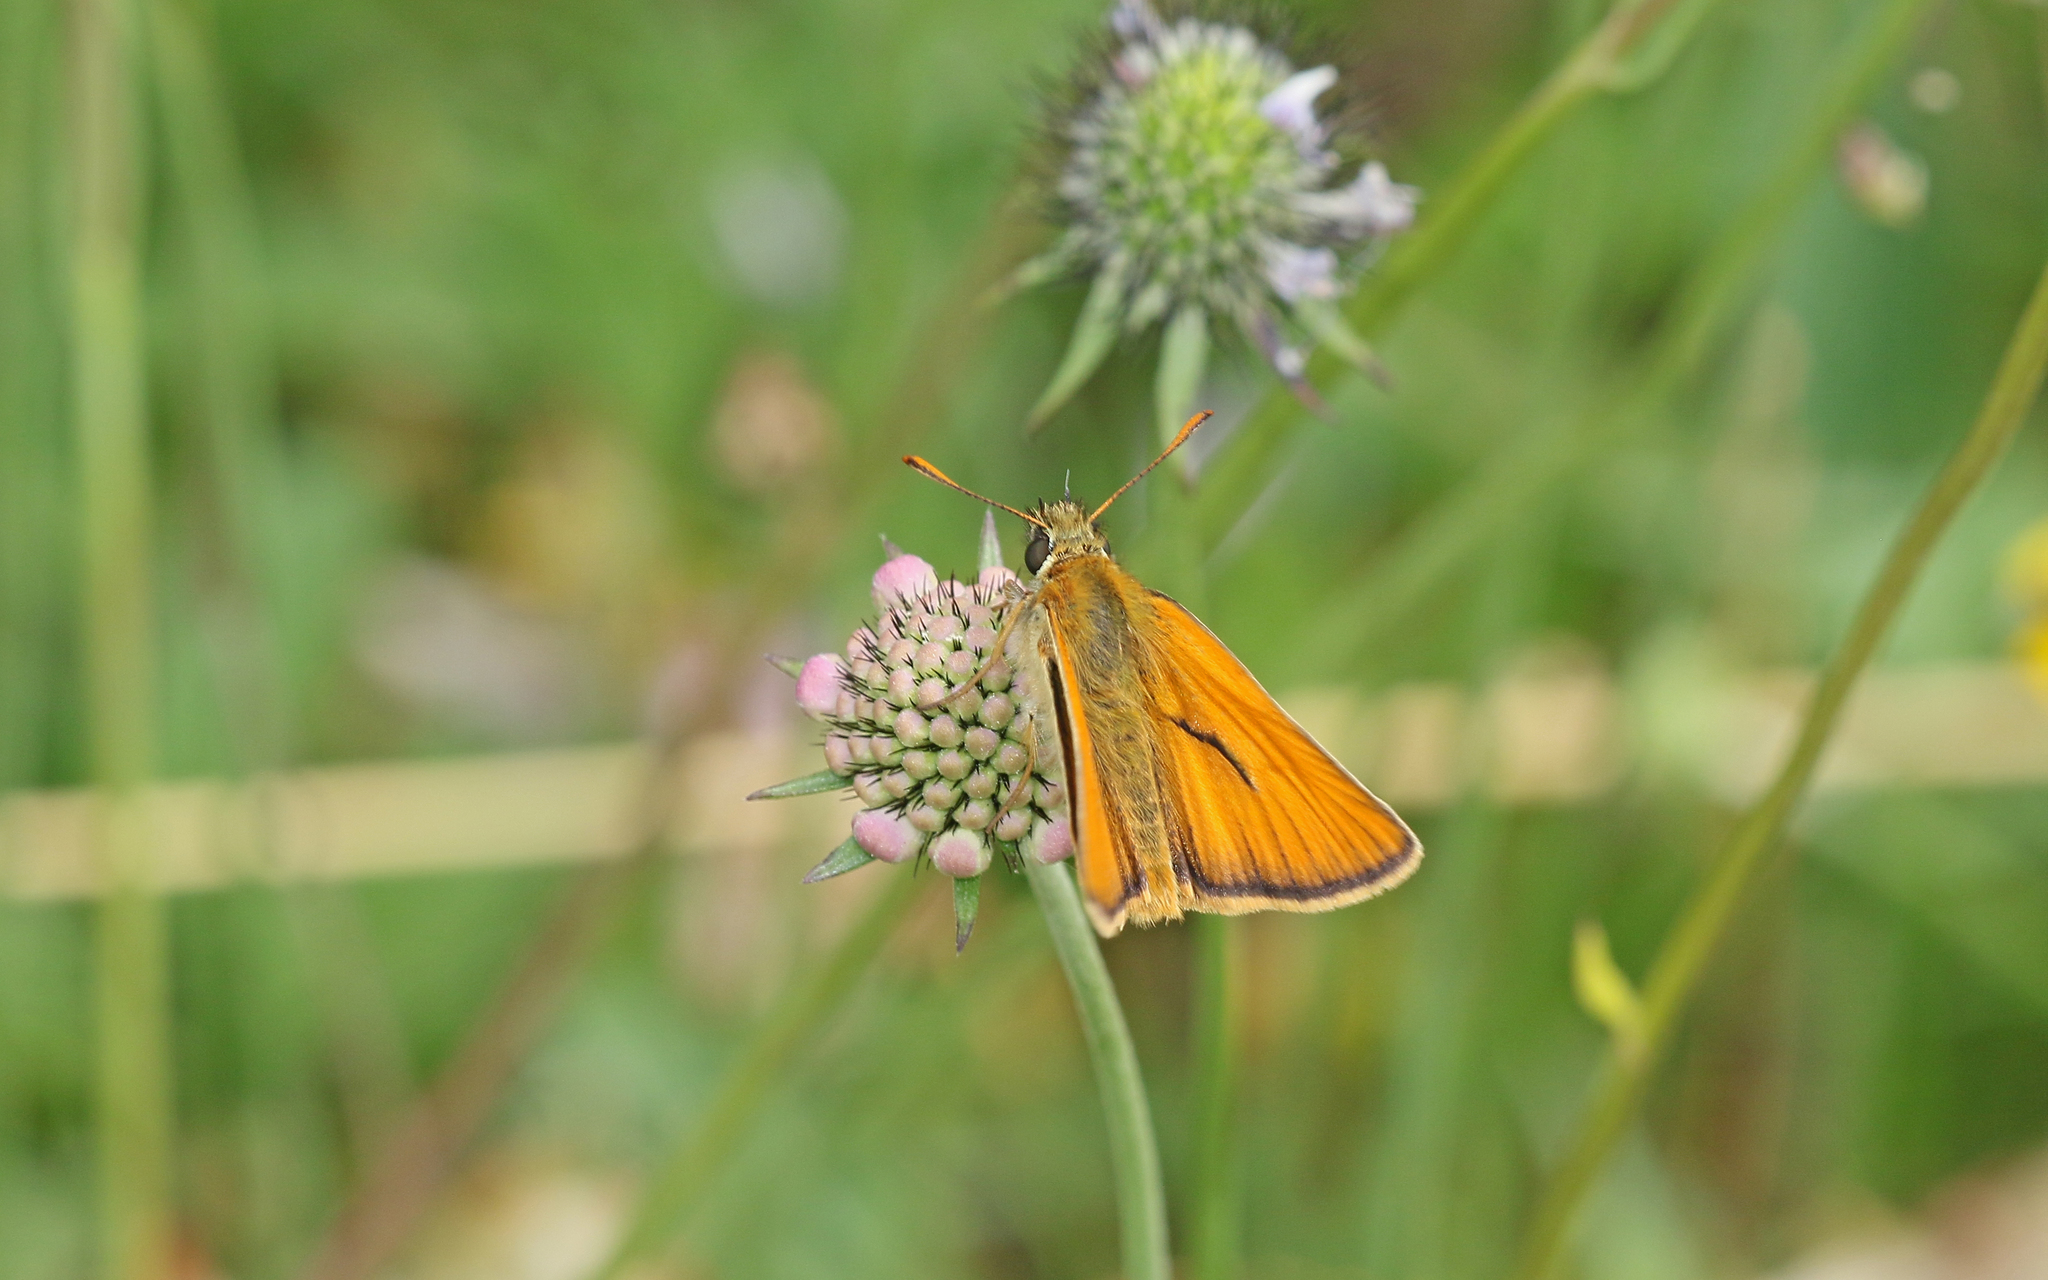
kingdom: Animalia
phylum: Arthropoda
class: Insecta
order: Lepidoptera
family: Hesperiidae
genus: Thymelicus
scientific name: Thymelicus sylvestris
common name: Small skipper
